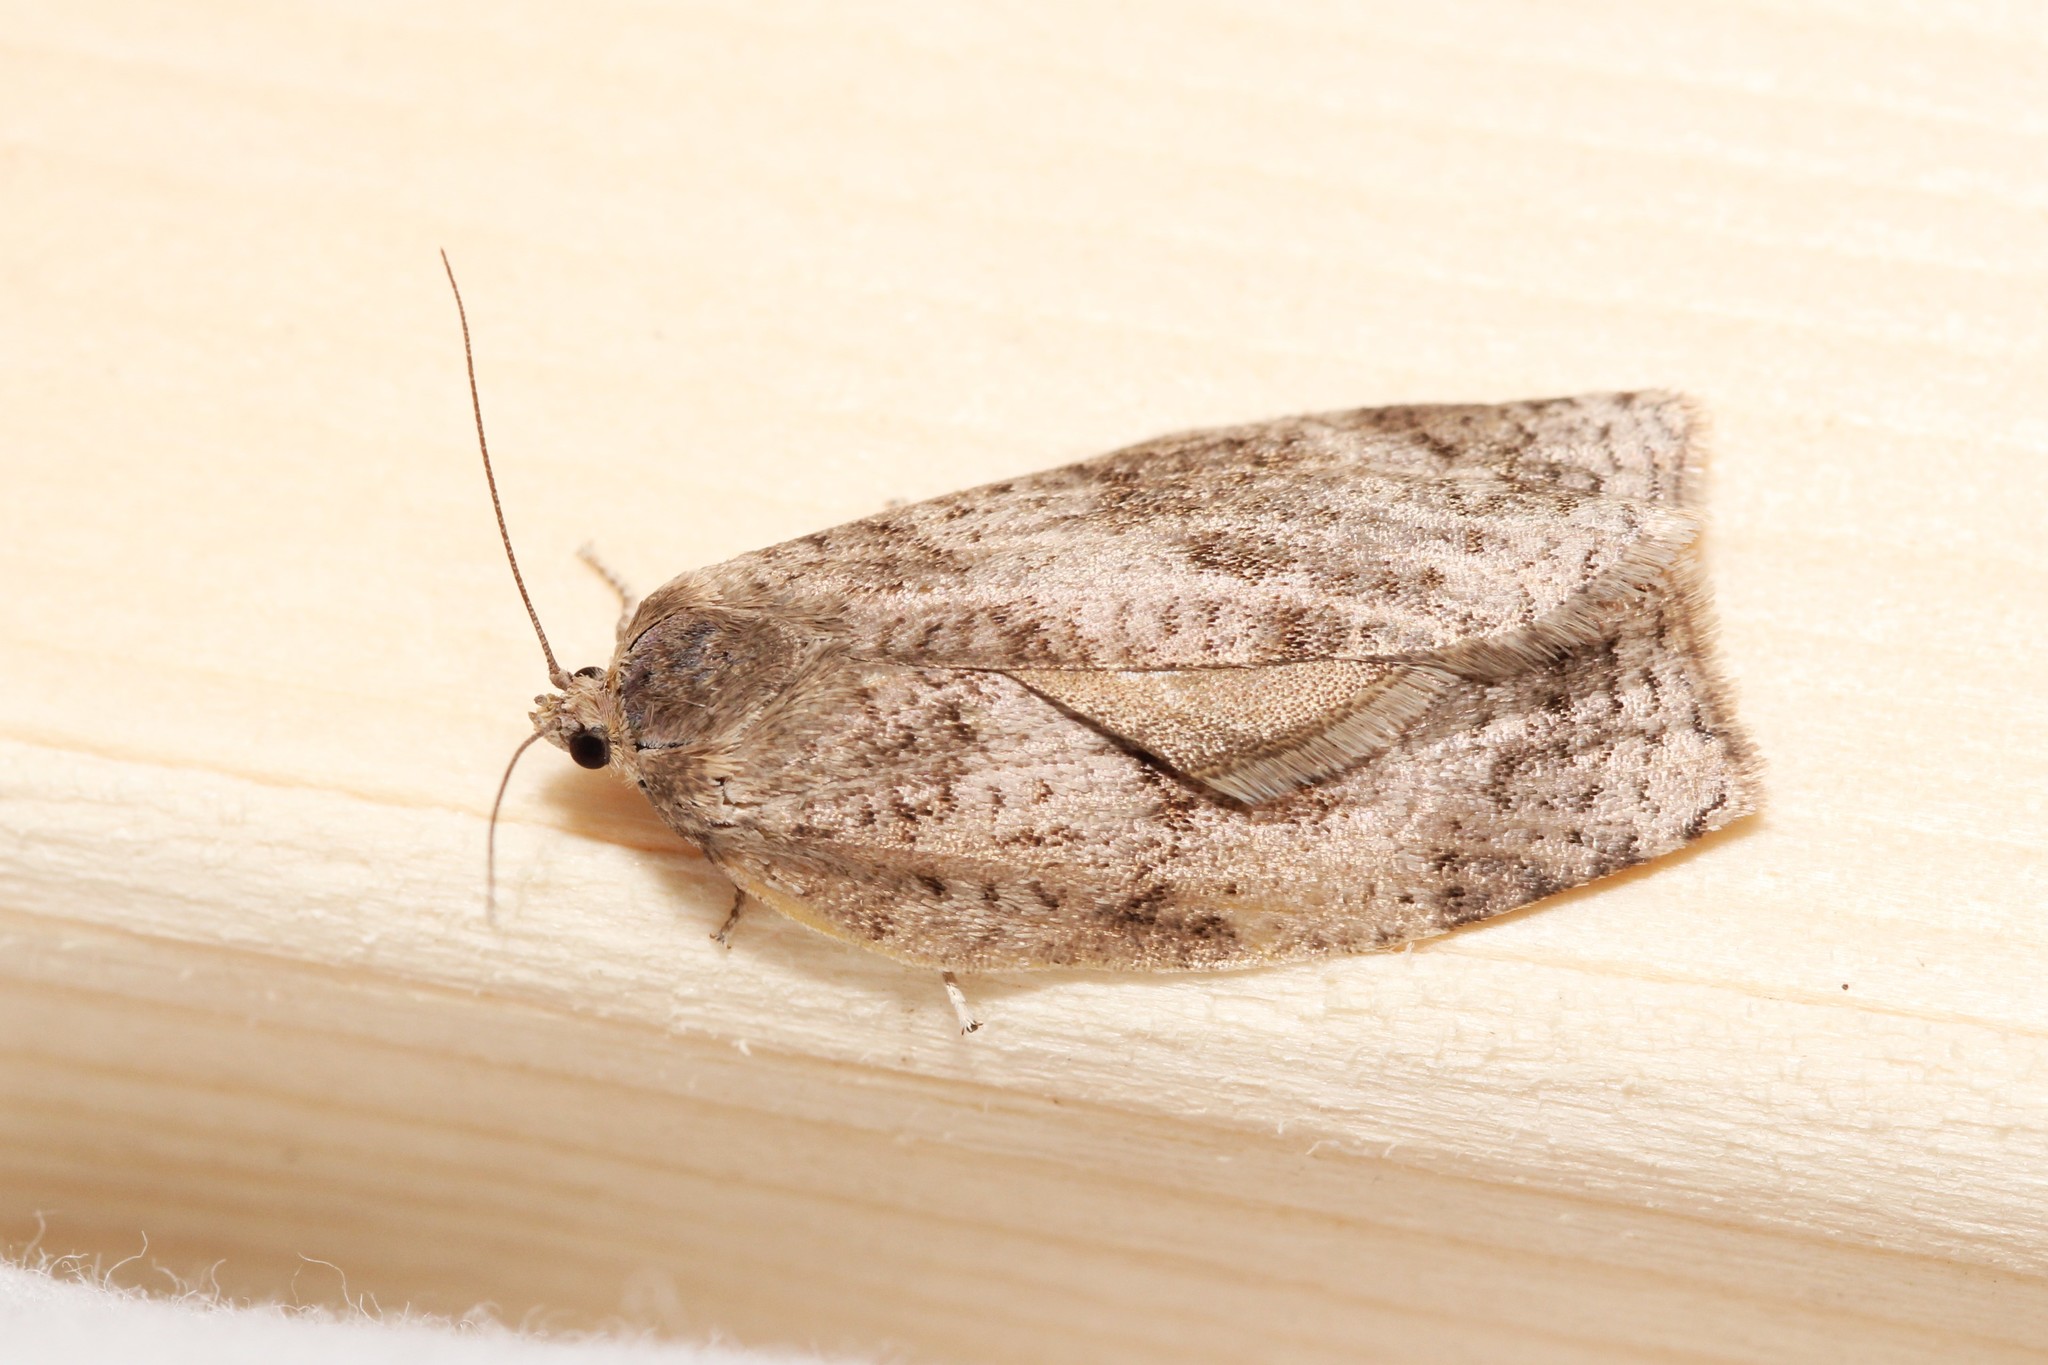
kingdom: Animalia
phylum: Arthropoda
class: Insecta
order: Lepidoptera
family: Tortricidae
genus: Choristoneura
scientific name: Choristoneura conflictana
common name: Large aspen tortrix
